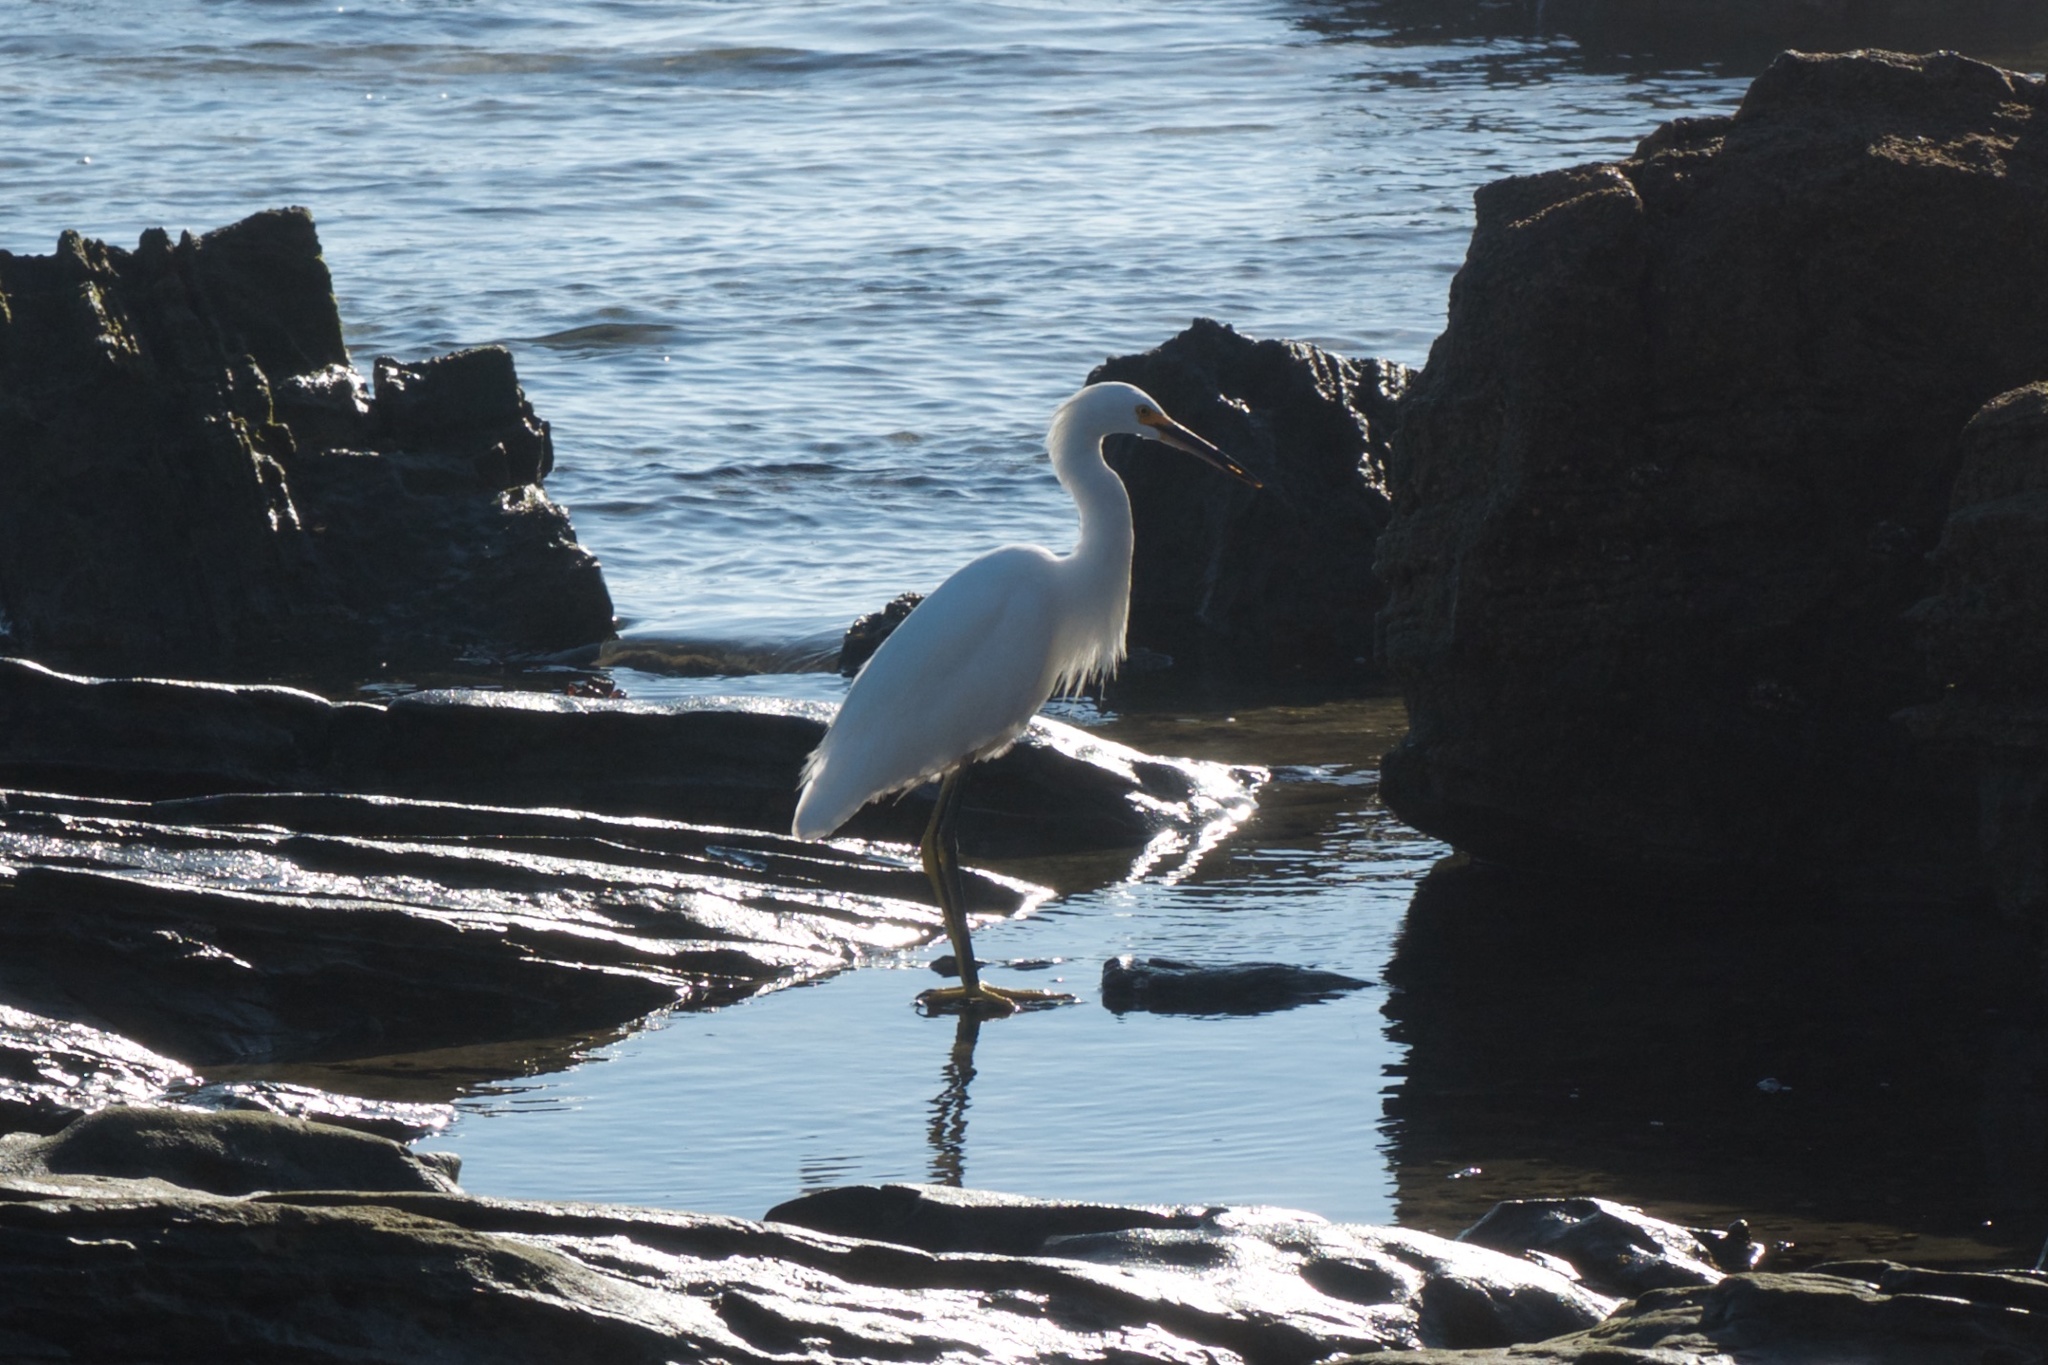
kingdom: Animalia
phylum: Chordata
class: Aves
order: Pelecaniformes
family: Ardeidae
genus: Egretta
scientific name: Egretta thula
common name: Snowy egret
